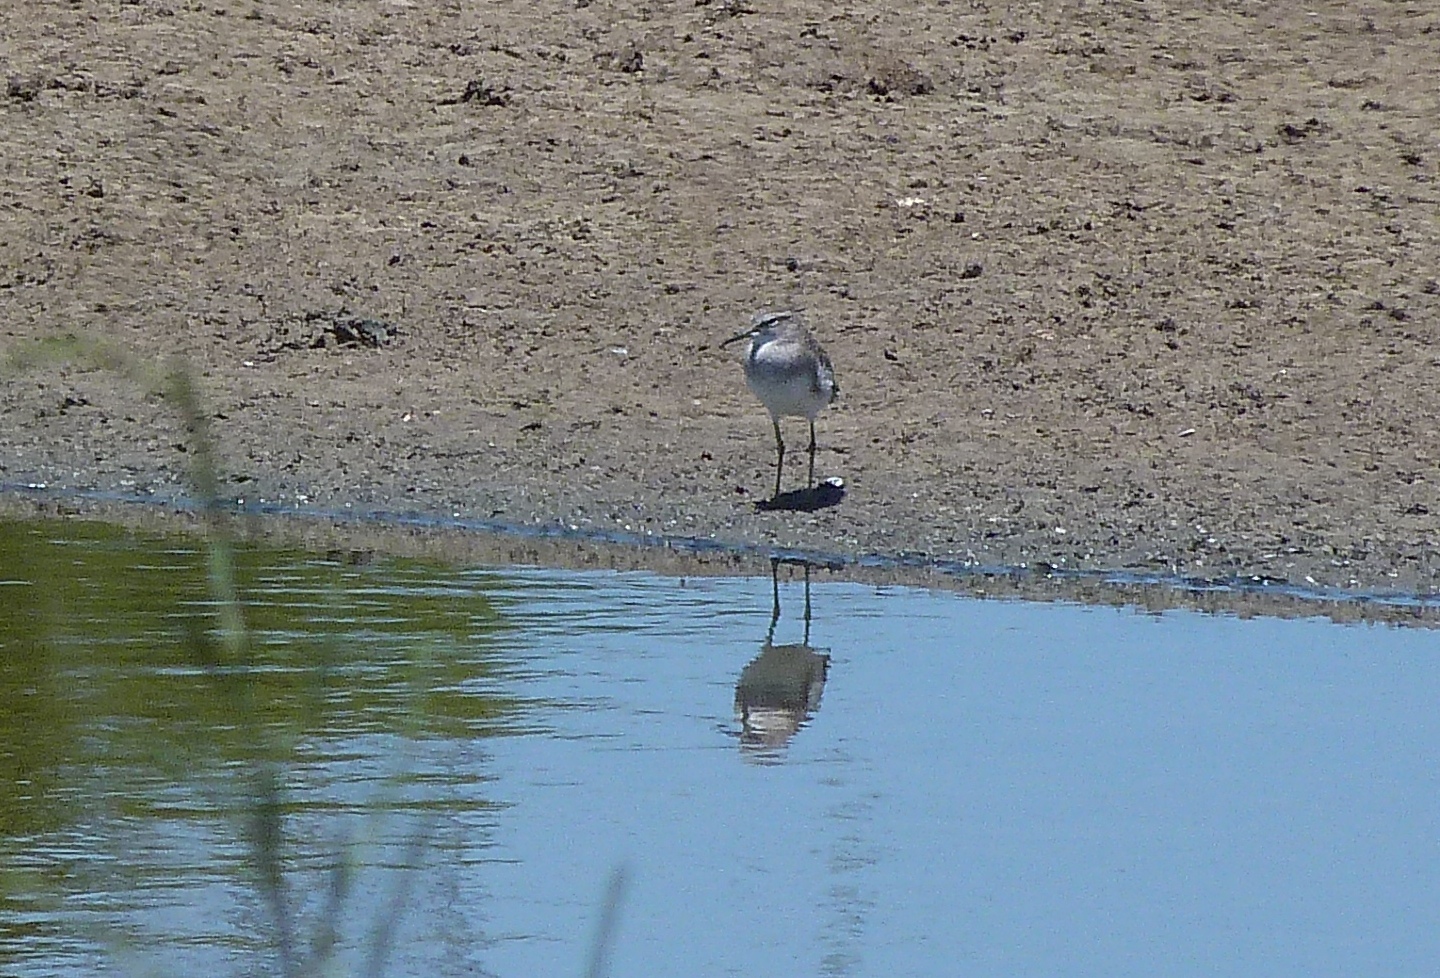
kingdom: Animalia
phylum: Chordata
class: Aves
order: Charadriiformes
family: Scolopacidae
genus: Tringa
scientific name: Tringa glareola
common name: Wood sandpiper
